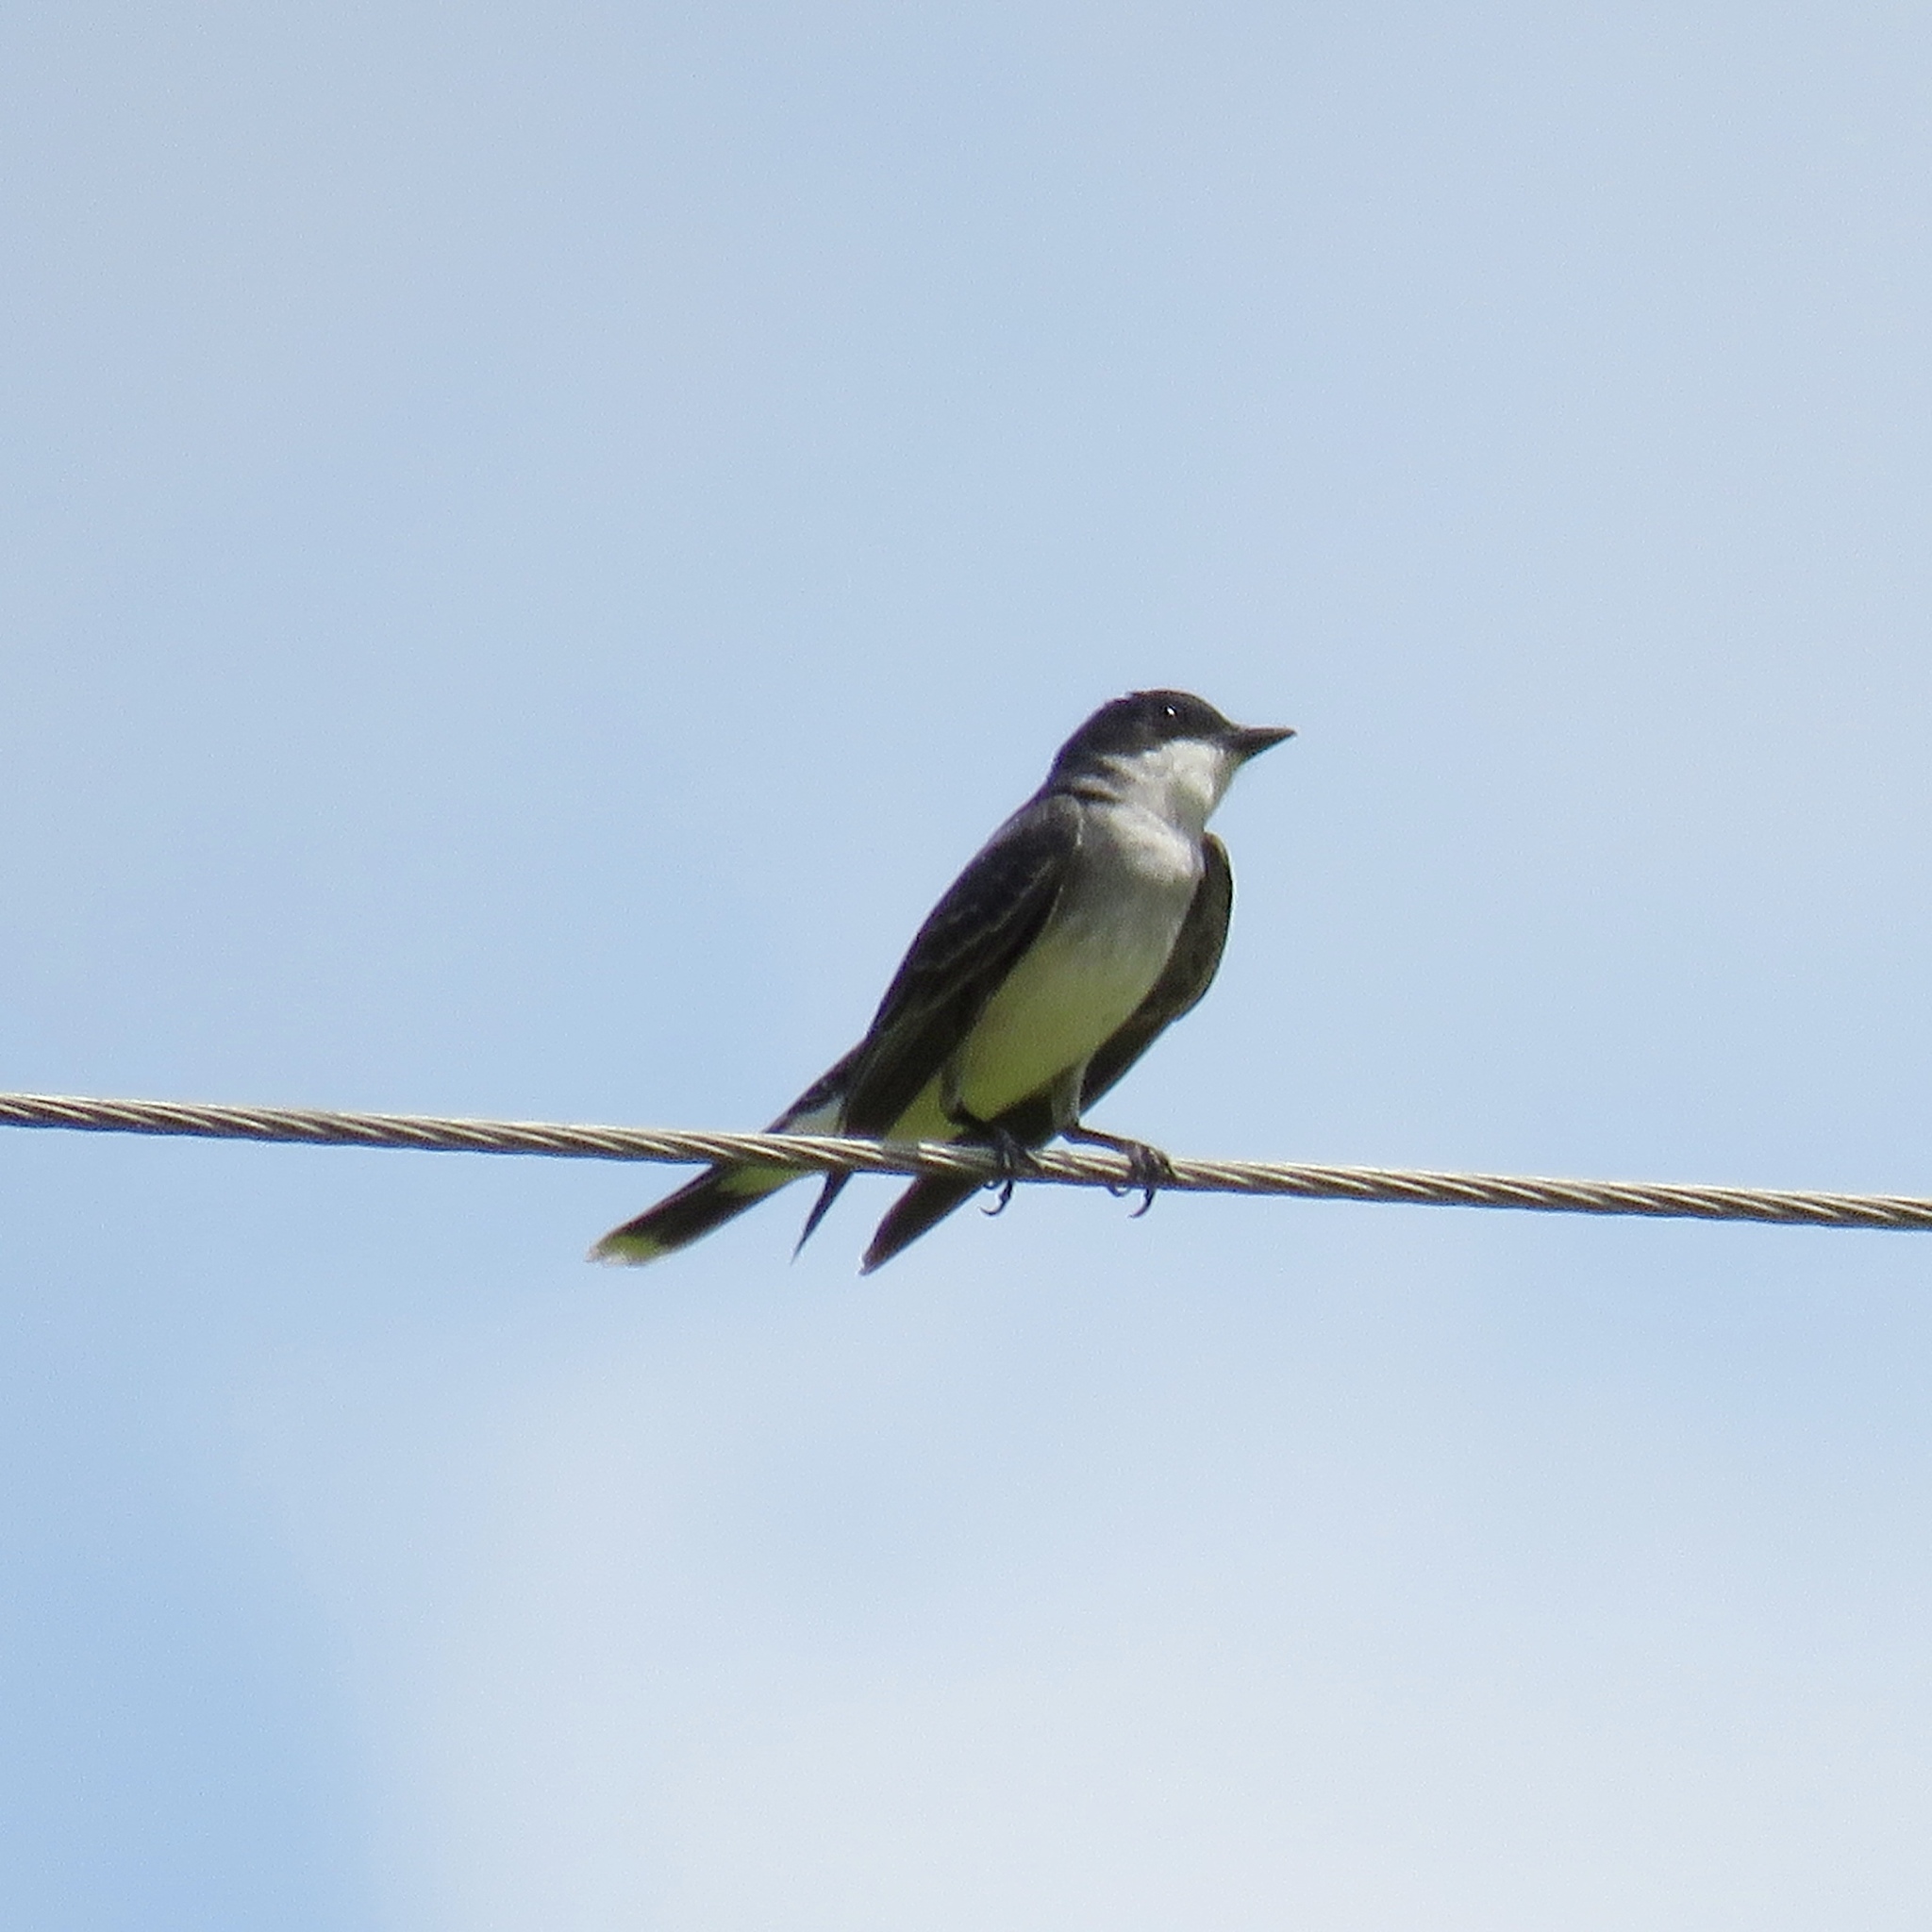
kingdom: Animalia
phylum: Chordata
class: Aves
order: Passeriformes
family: Tyrannidae
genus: Tyrannus
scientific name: Tyrannus tyrannus
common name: Eastern kingbird
